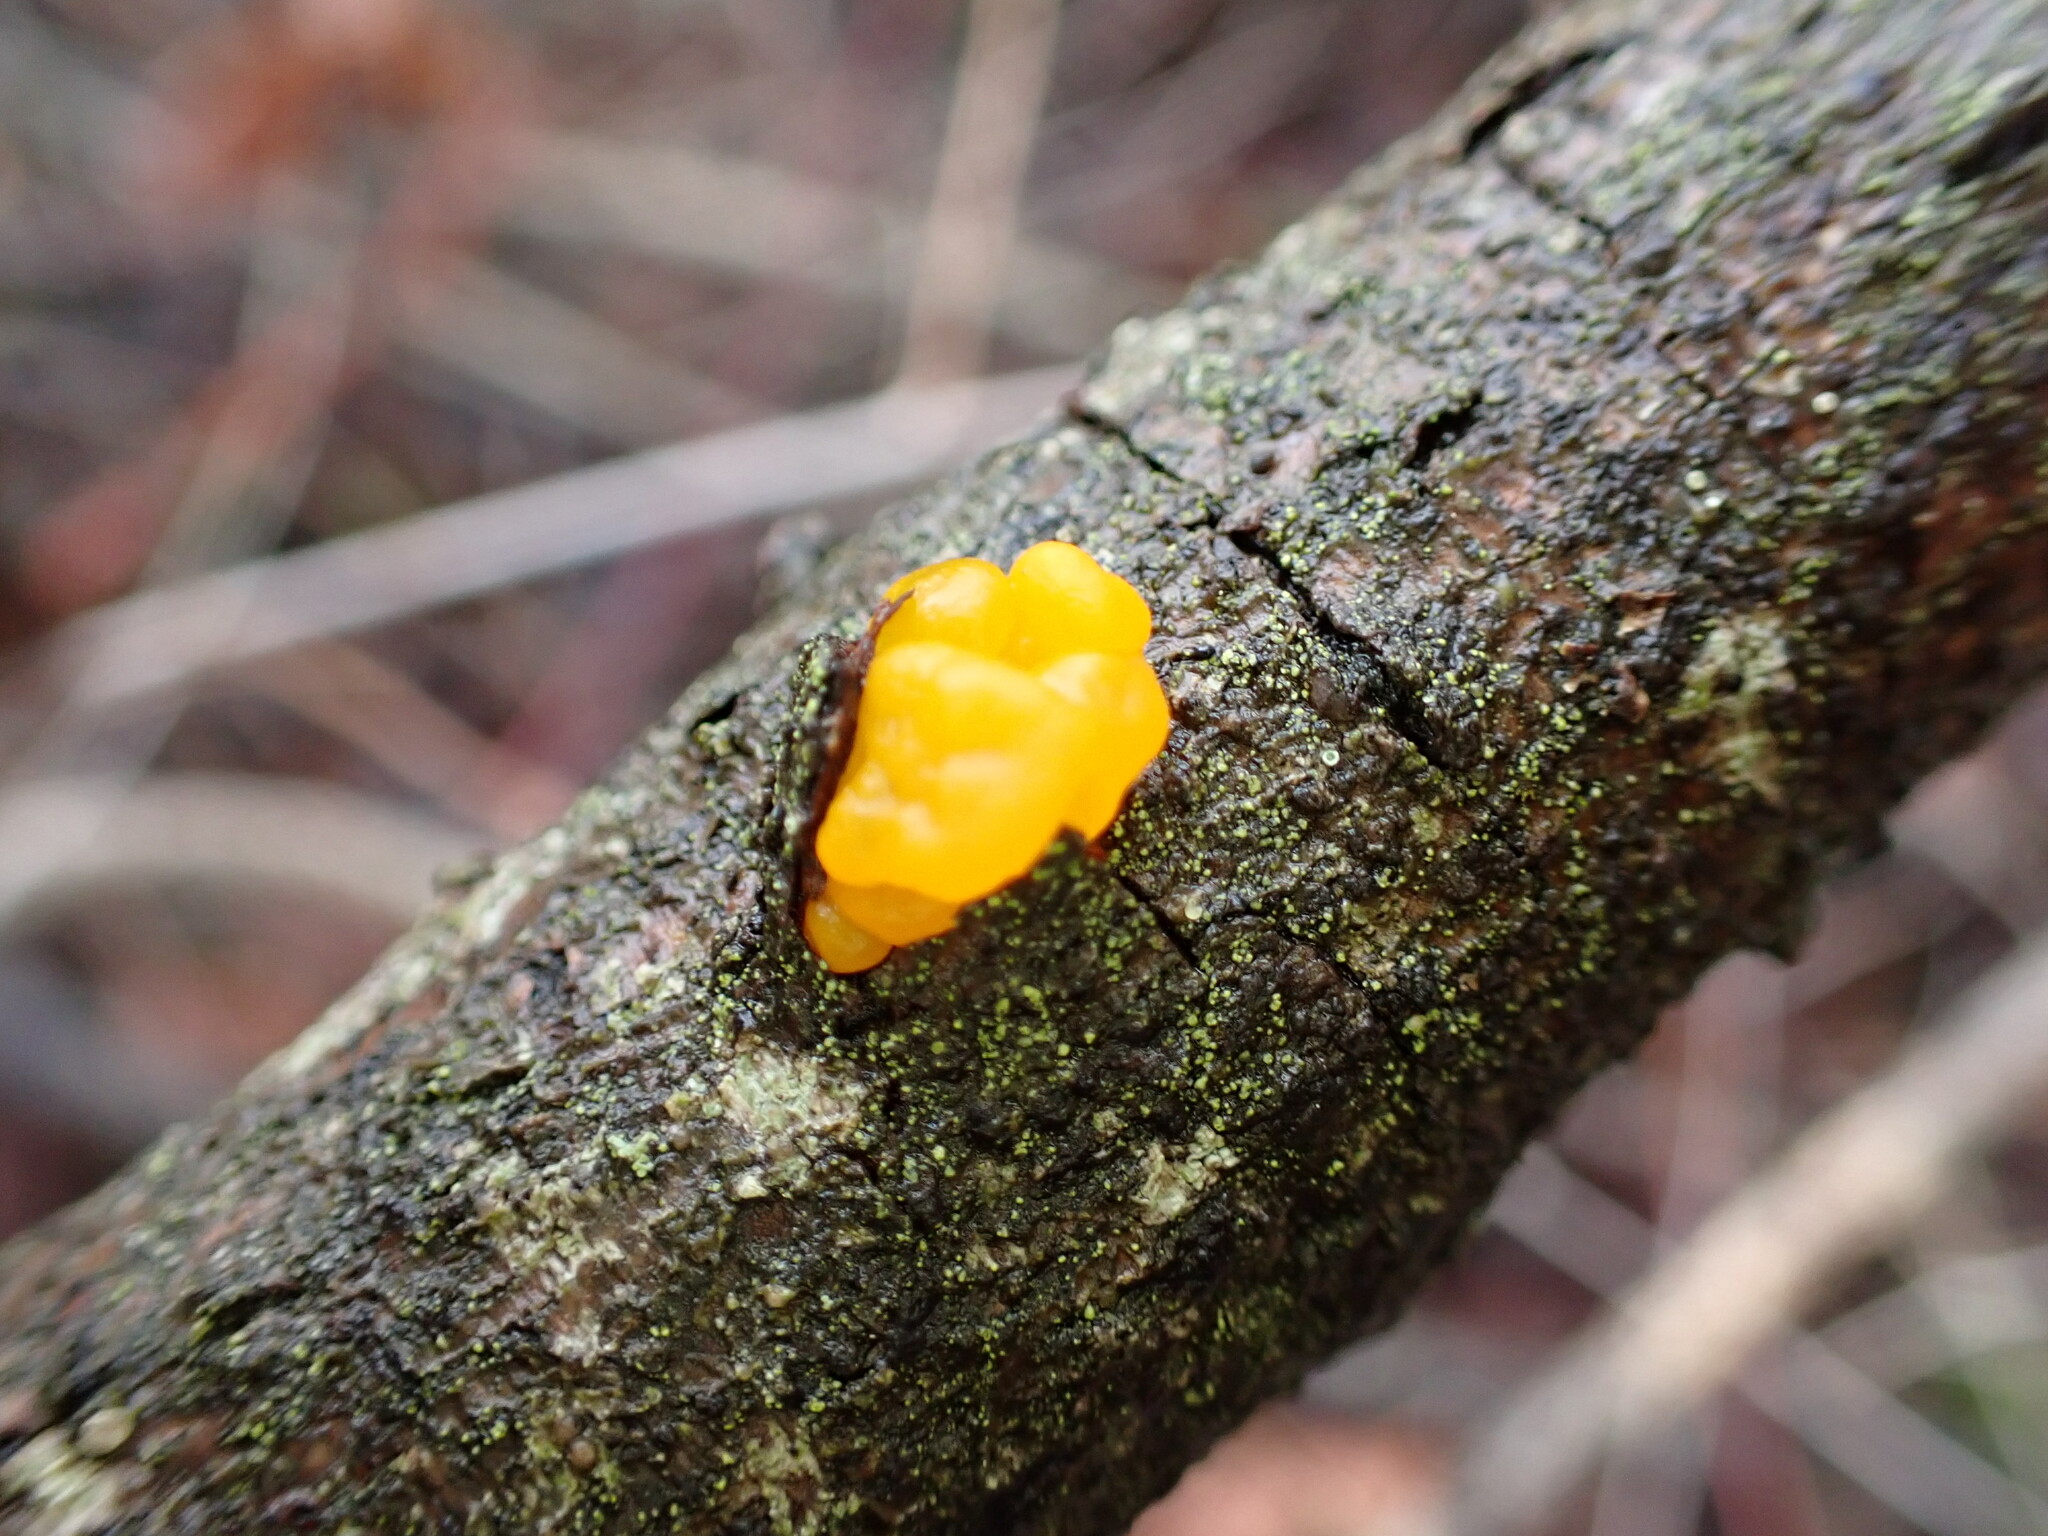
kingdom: Fungi
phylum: Basidiomycota
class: Tremellomycetes
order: Tremellales
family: Tremellaceae
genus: Tremella
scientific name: Tremella mesenterica
